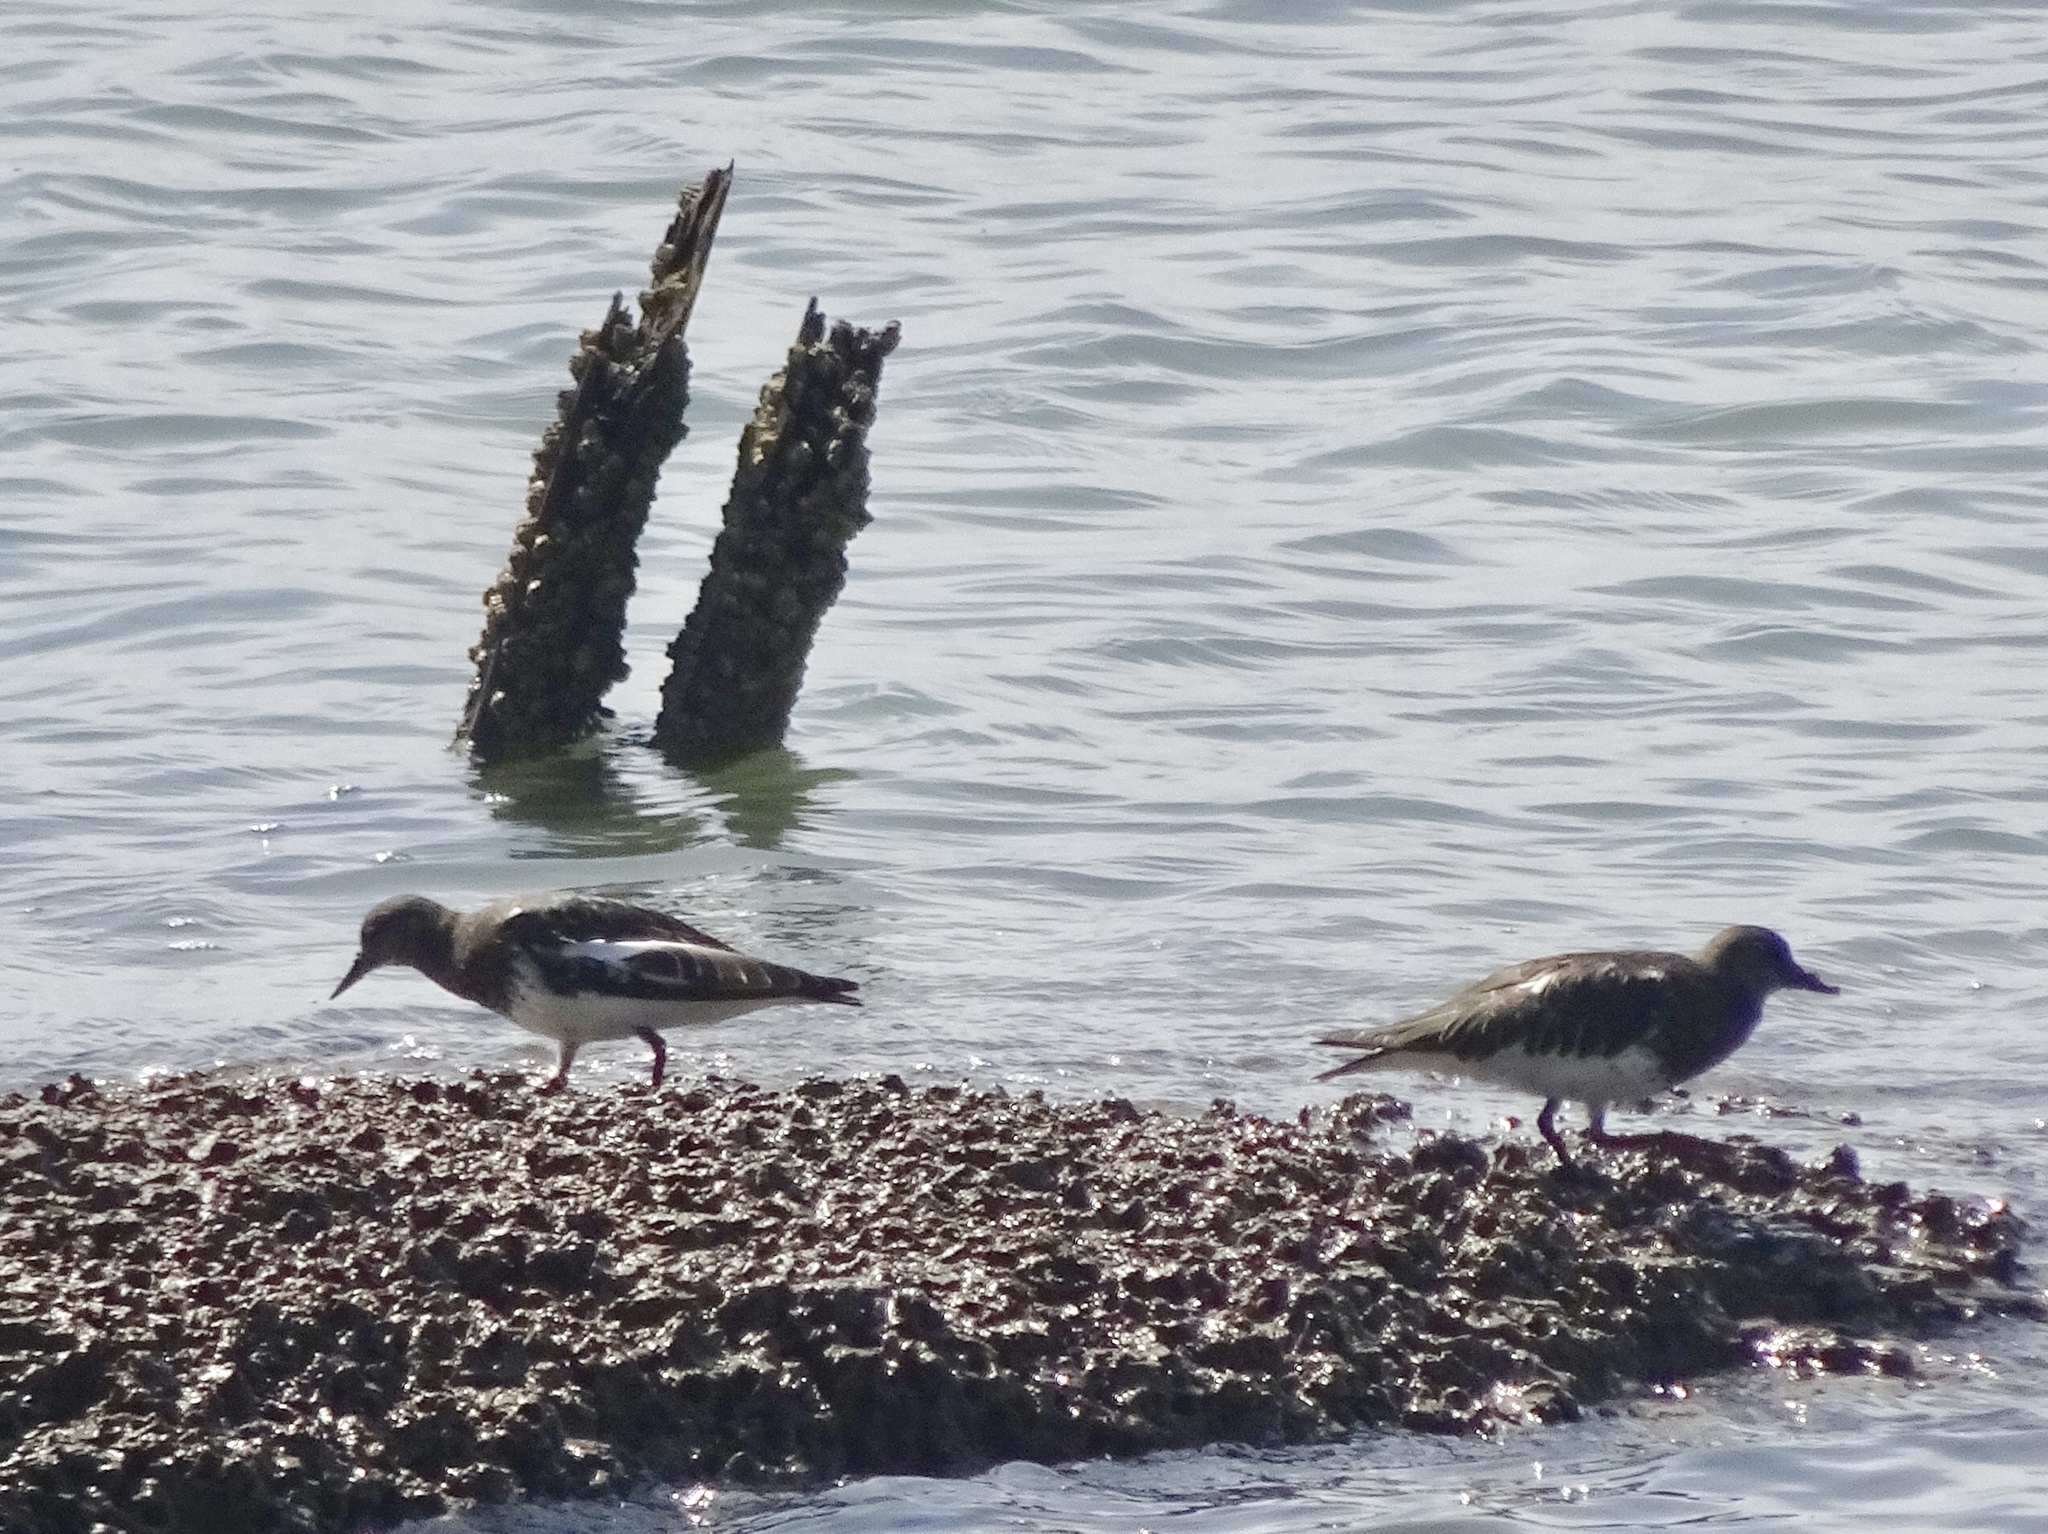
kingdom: Animalia
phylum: Chordata
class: Aves
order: Charadriiformes
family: Scolopacidae
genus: Arenaria
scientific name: Arenaria melanocephala
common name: Black turnstone
